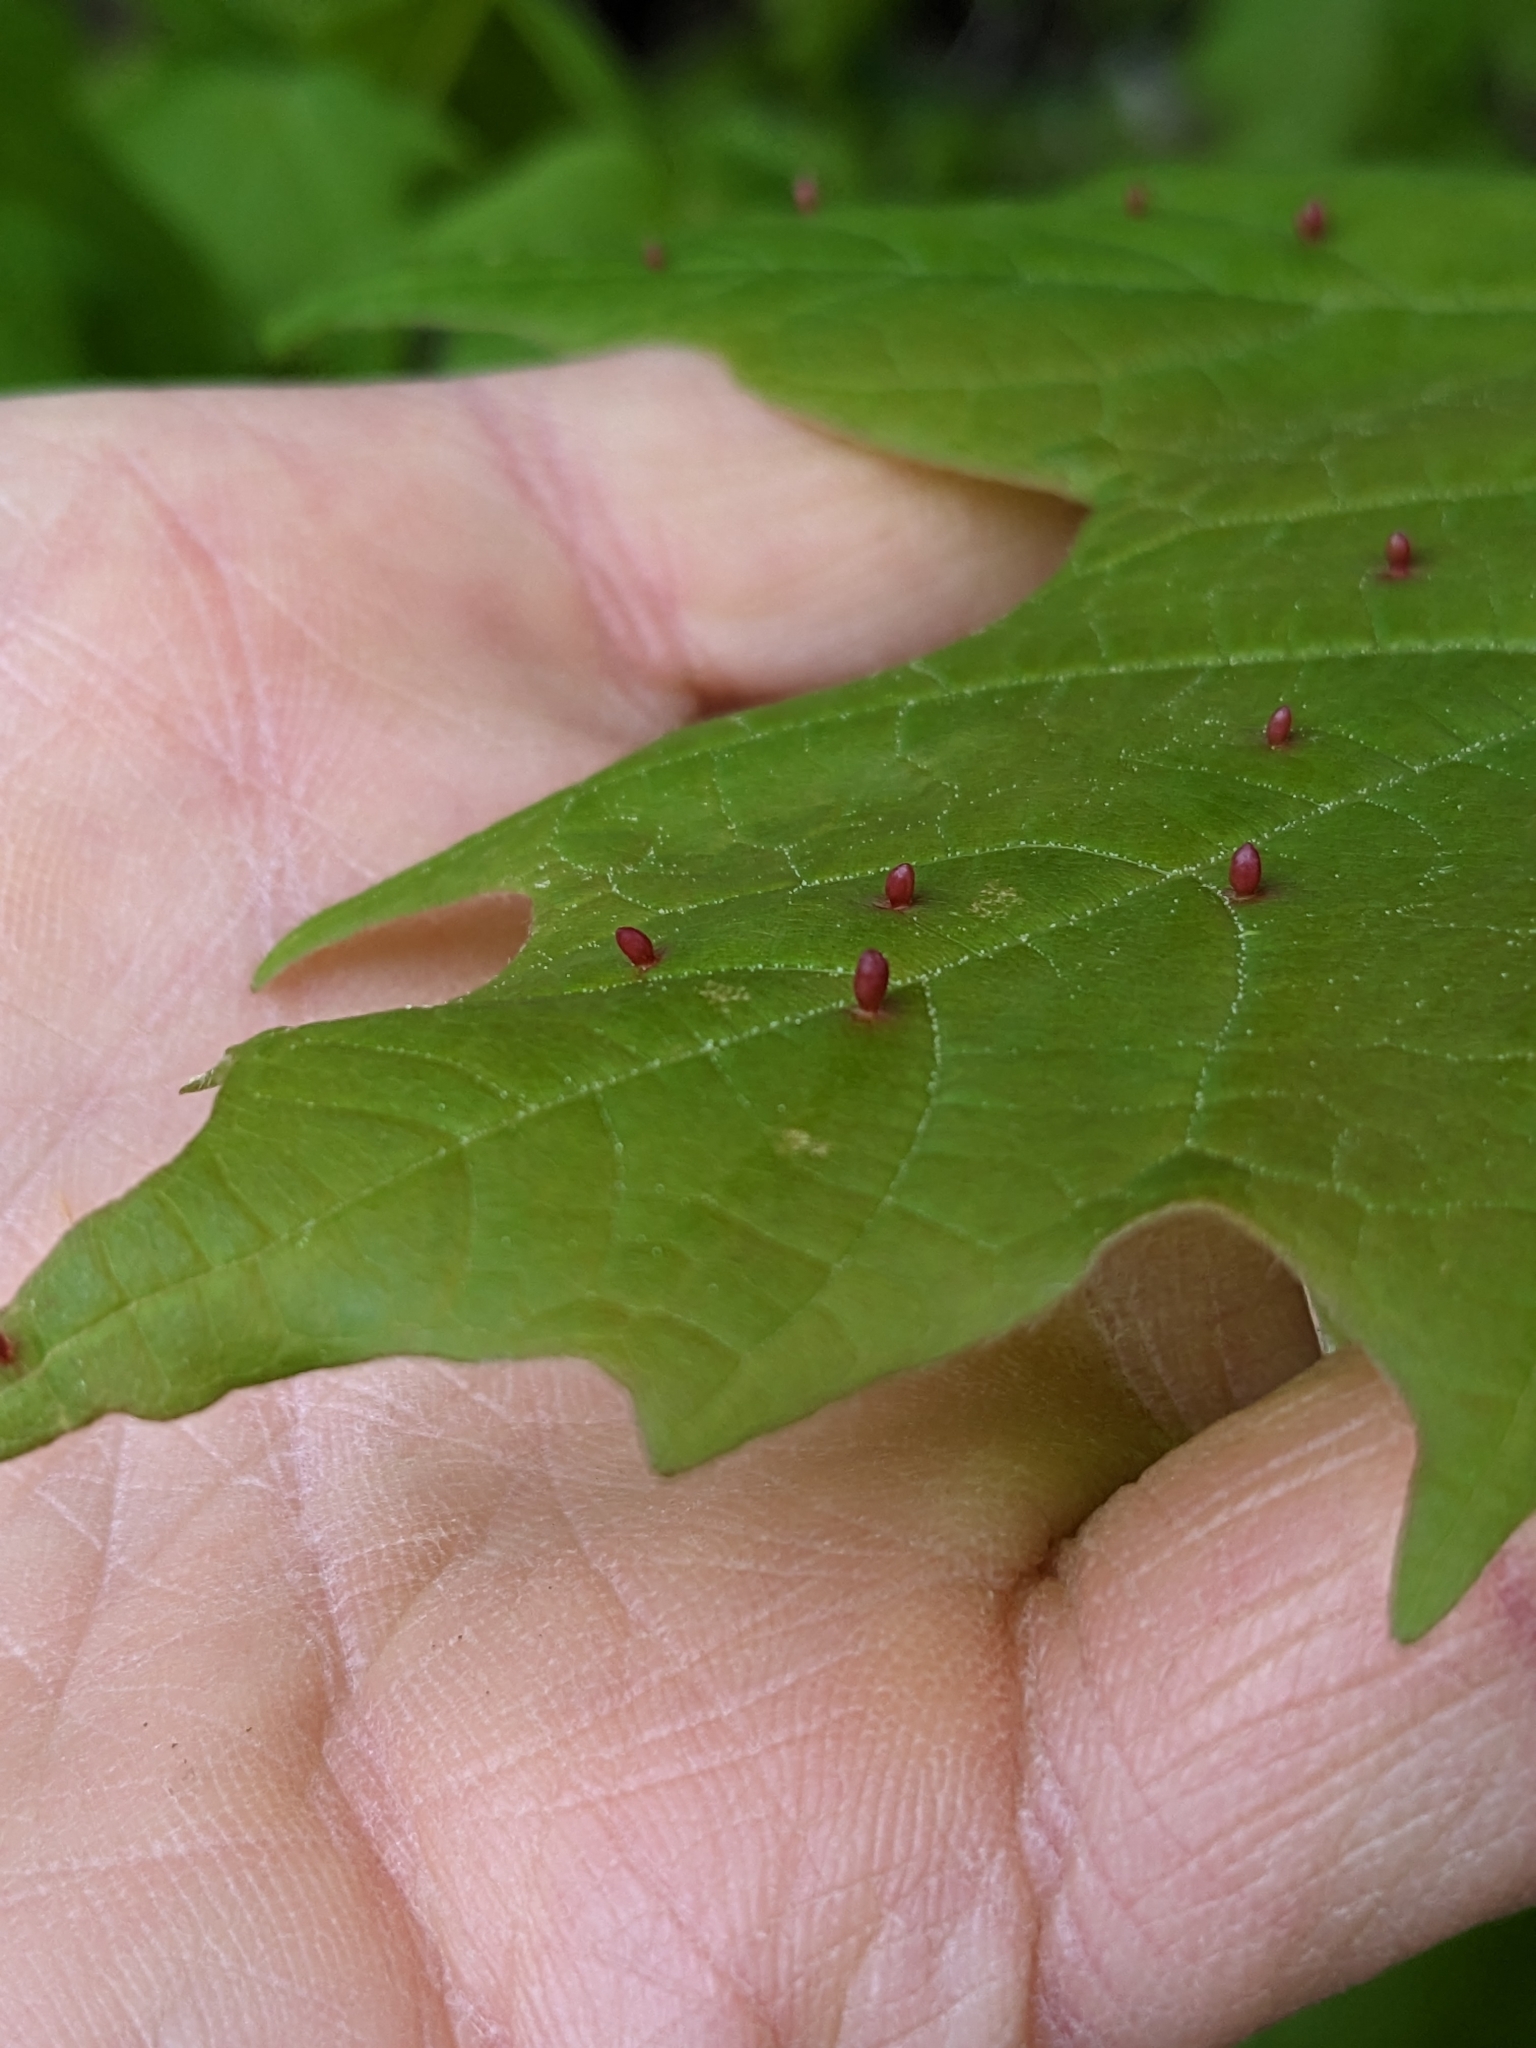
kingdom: Animalia
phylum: Arthropoda
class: Arachnida
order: Trombidiformes
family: Eriophyidae
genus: Vasates
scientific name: Vasates aceriscrumena
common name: Maple spindle gall mite
